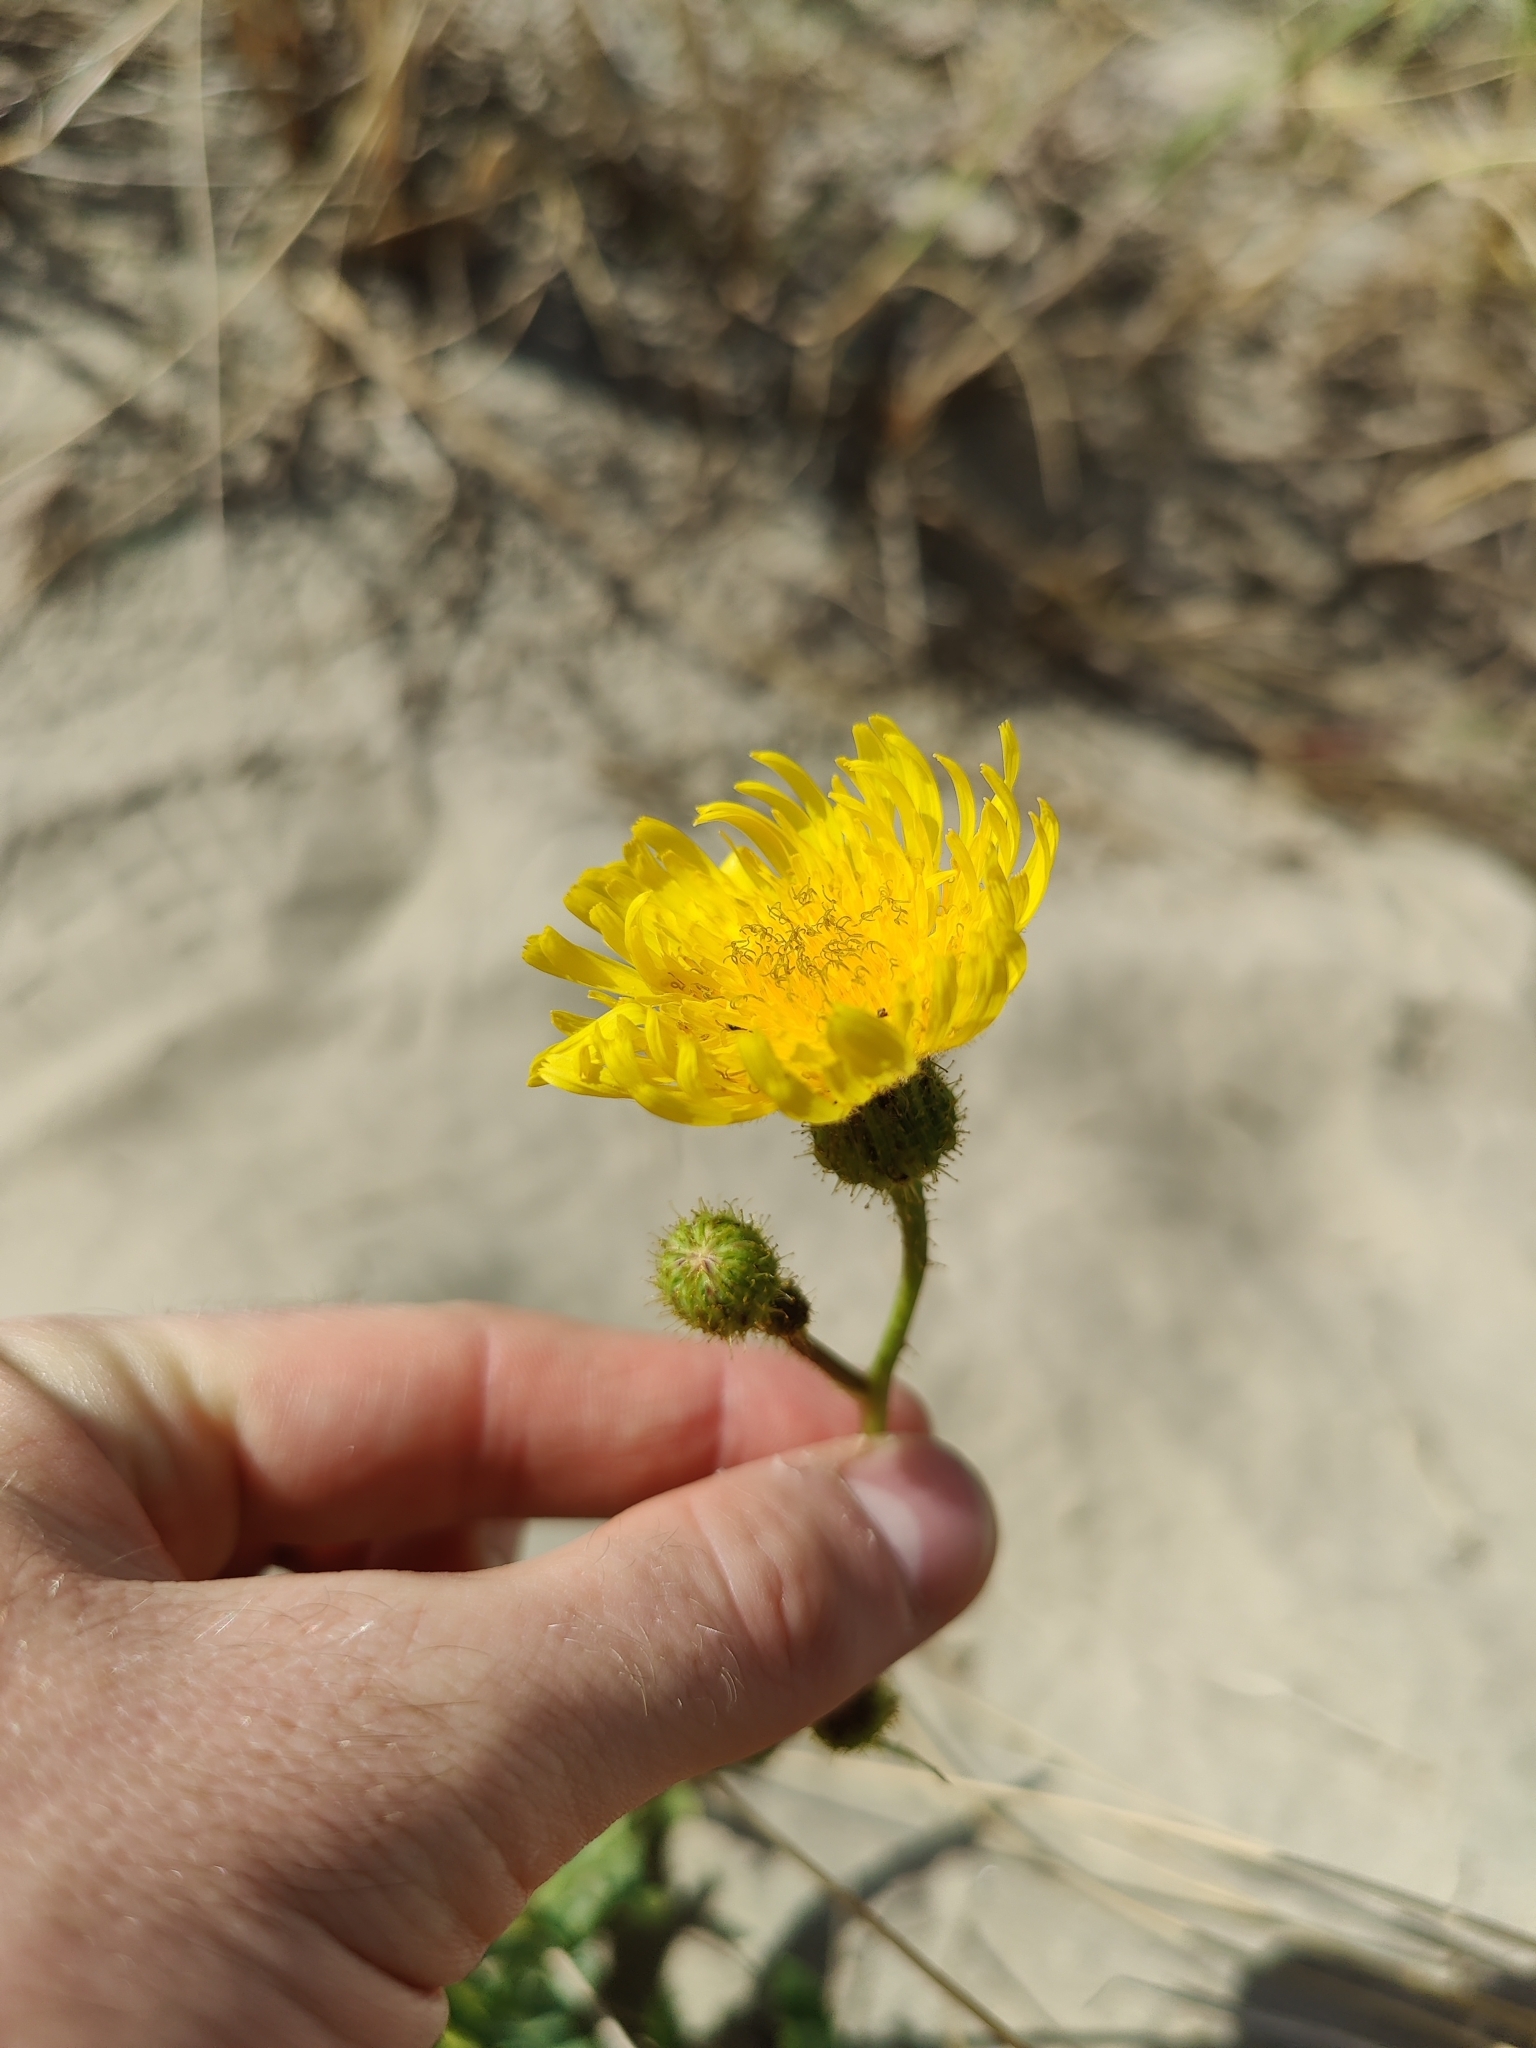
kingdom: Plantae
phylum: Tracheophyta
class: Magnoliopsida
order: Asterales
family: Asteraceae
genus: Sonchus
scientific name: Sonchus arvensis
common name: Perennial sow-thistle
